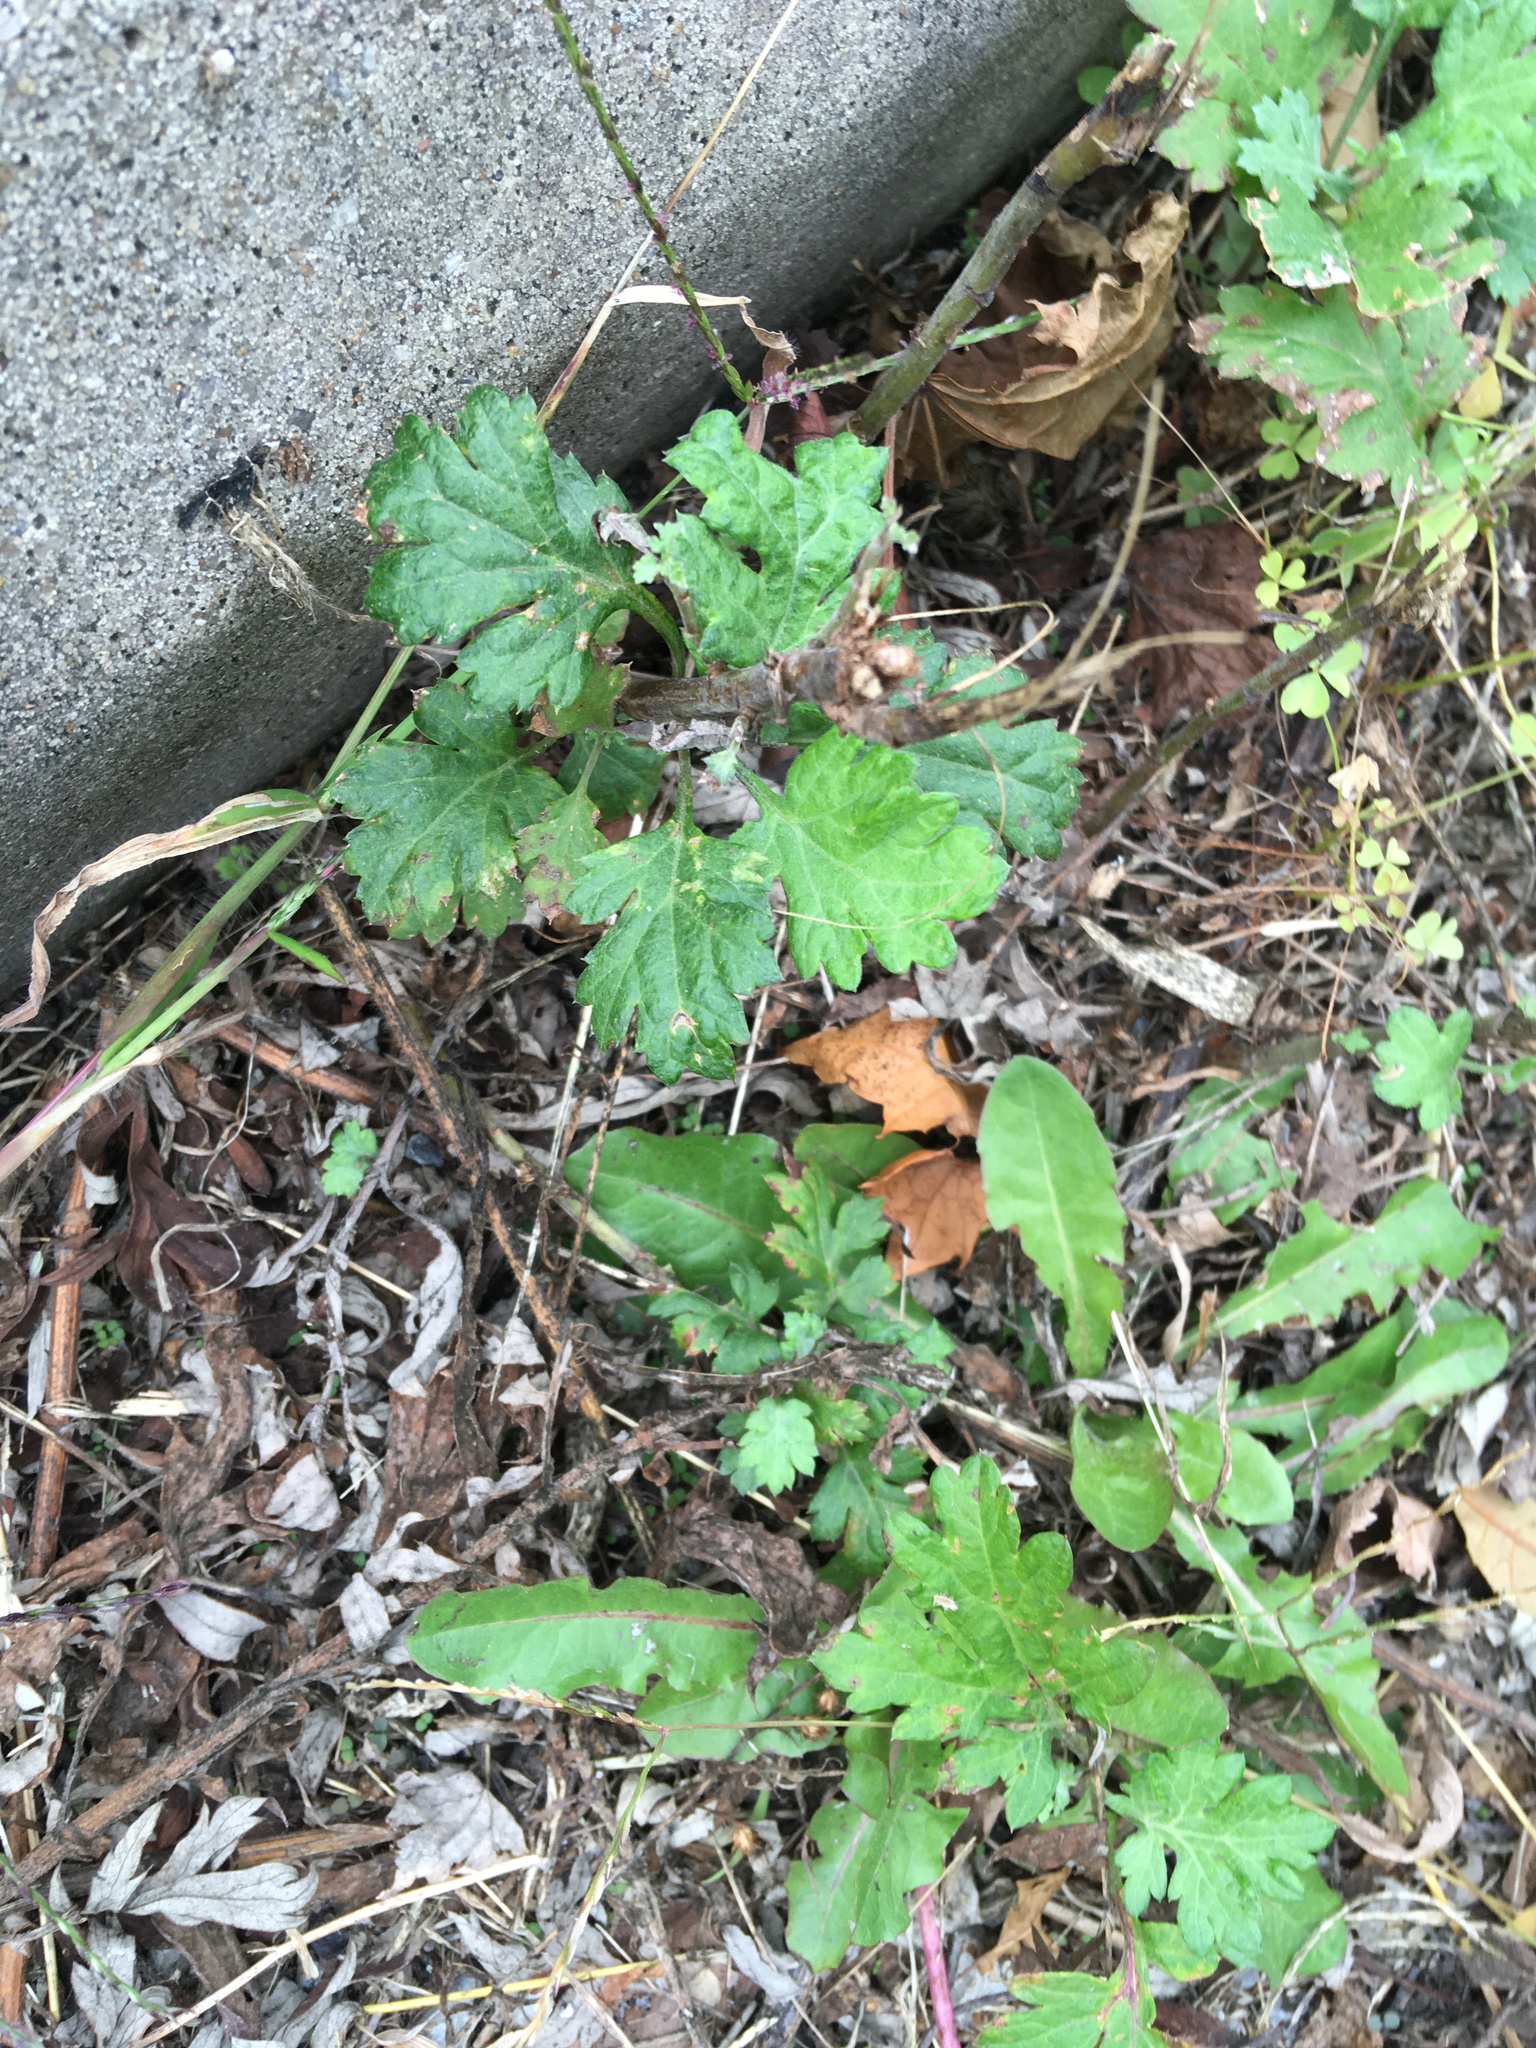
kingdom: Plantae
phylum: Tracheophyta
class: Magnoliopsida
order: Asterales
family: Asteraceae
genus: Artemisia
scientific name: Artemisia vulgaris
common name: Mugwort
